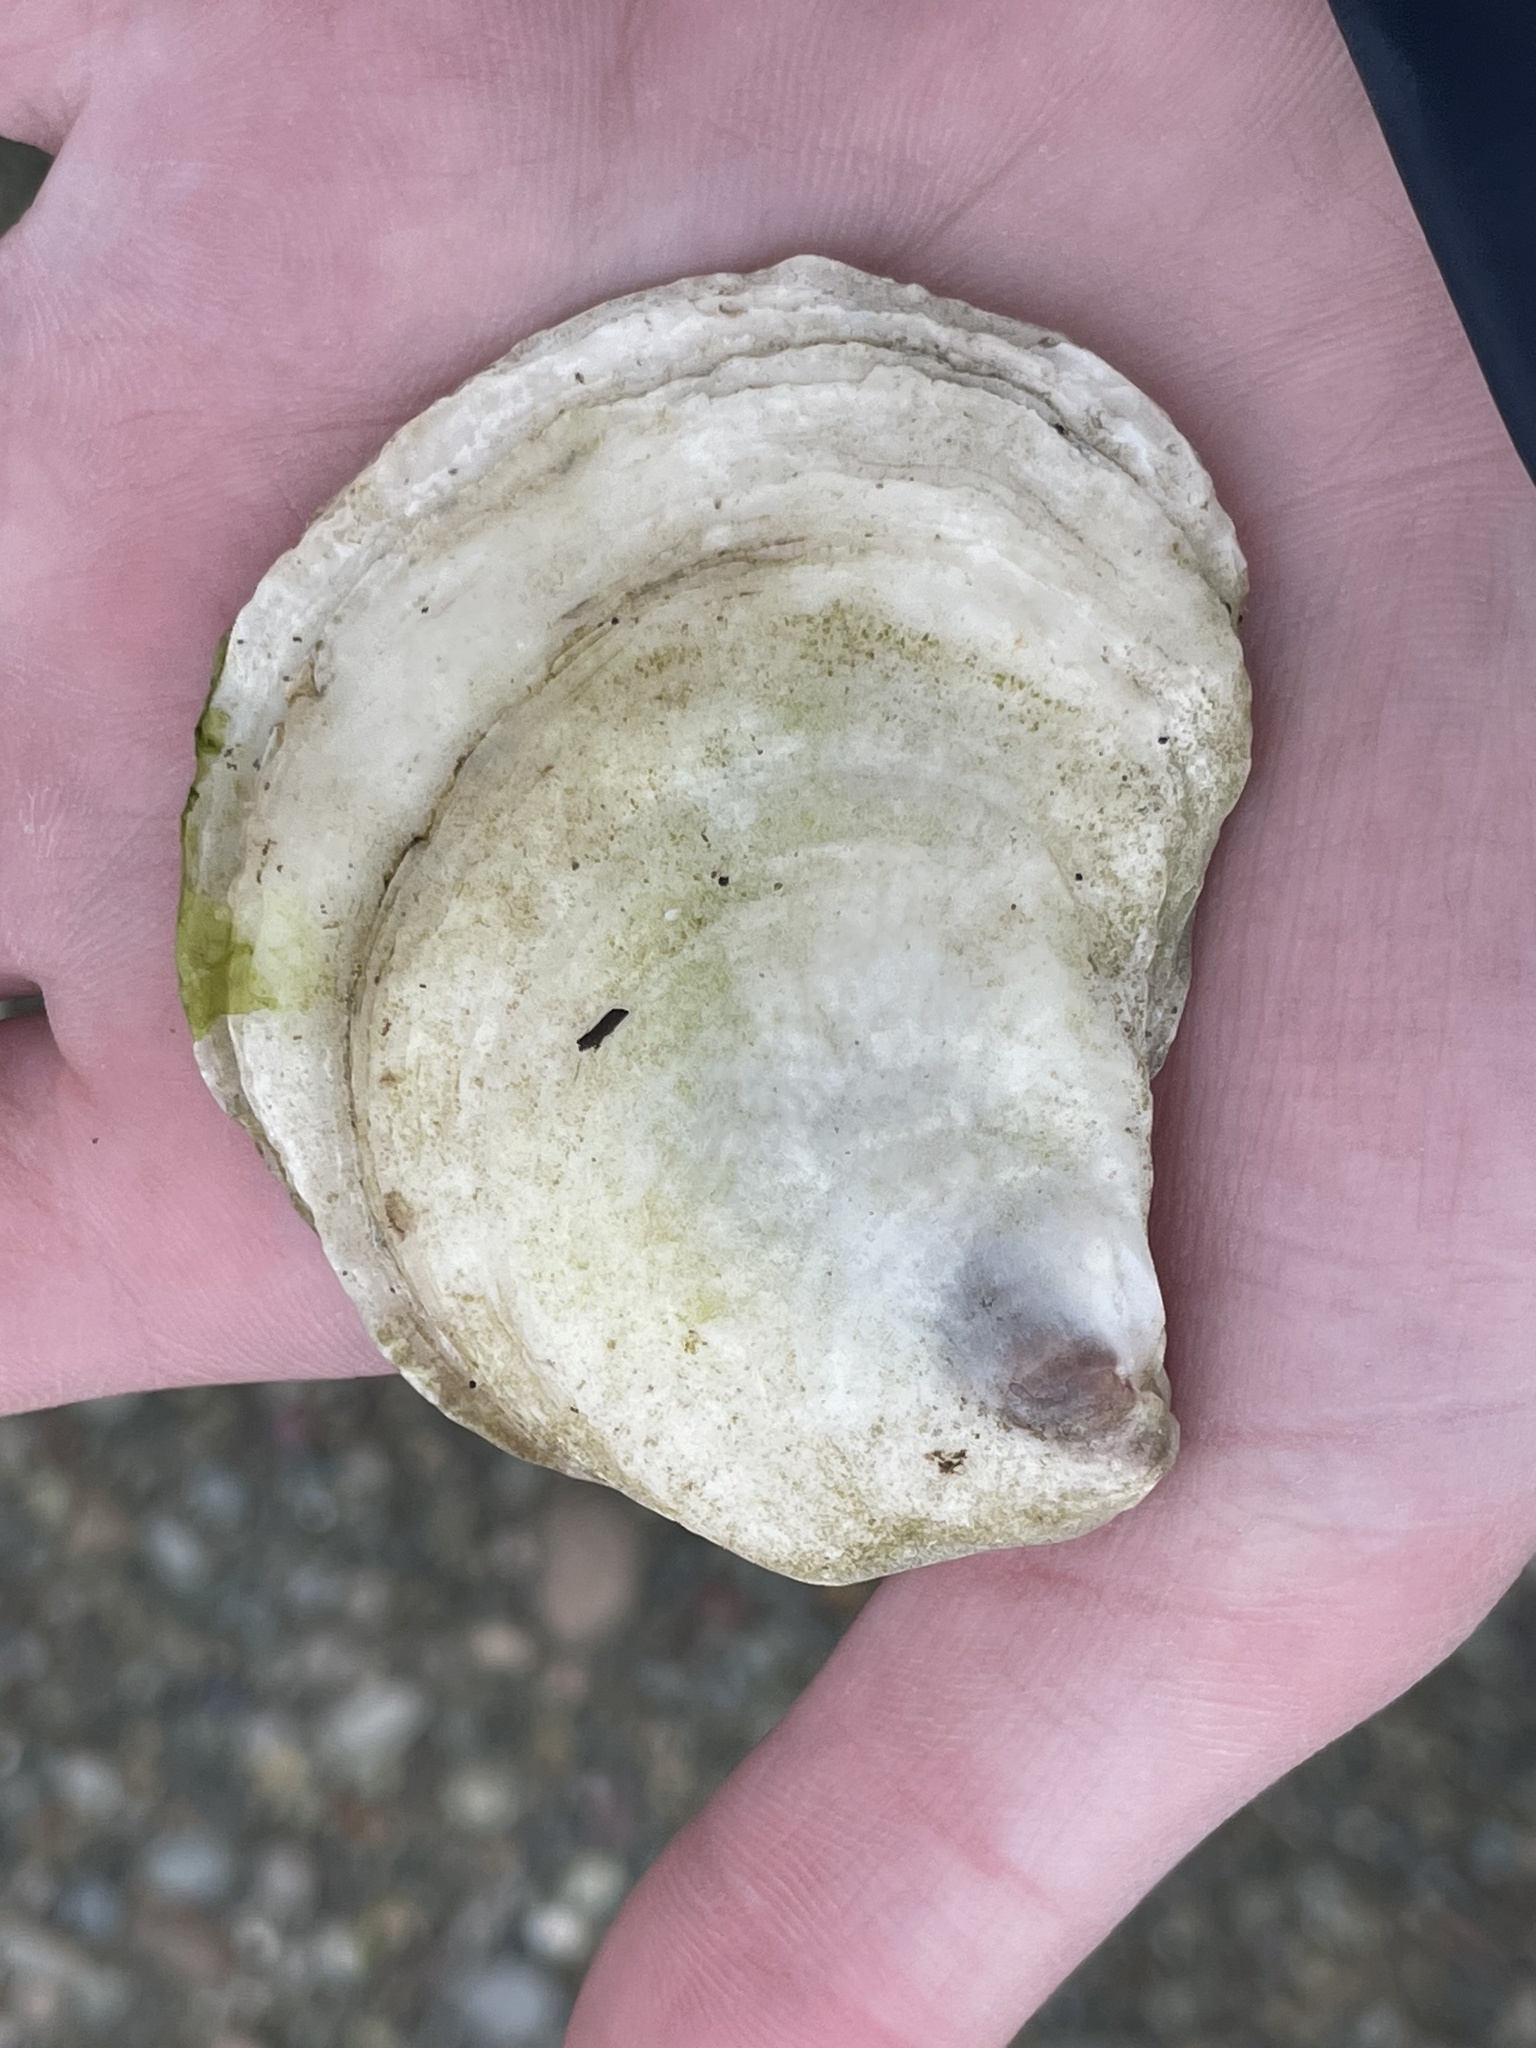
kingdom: Animalia
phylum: Mollusca
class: Bivalvia
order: Ostreida
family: Ostreidae
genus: Crassostrea
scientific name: Crassostrea virginica
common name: American oyster
